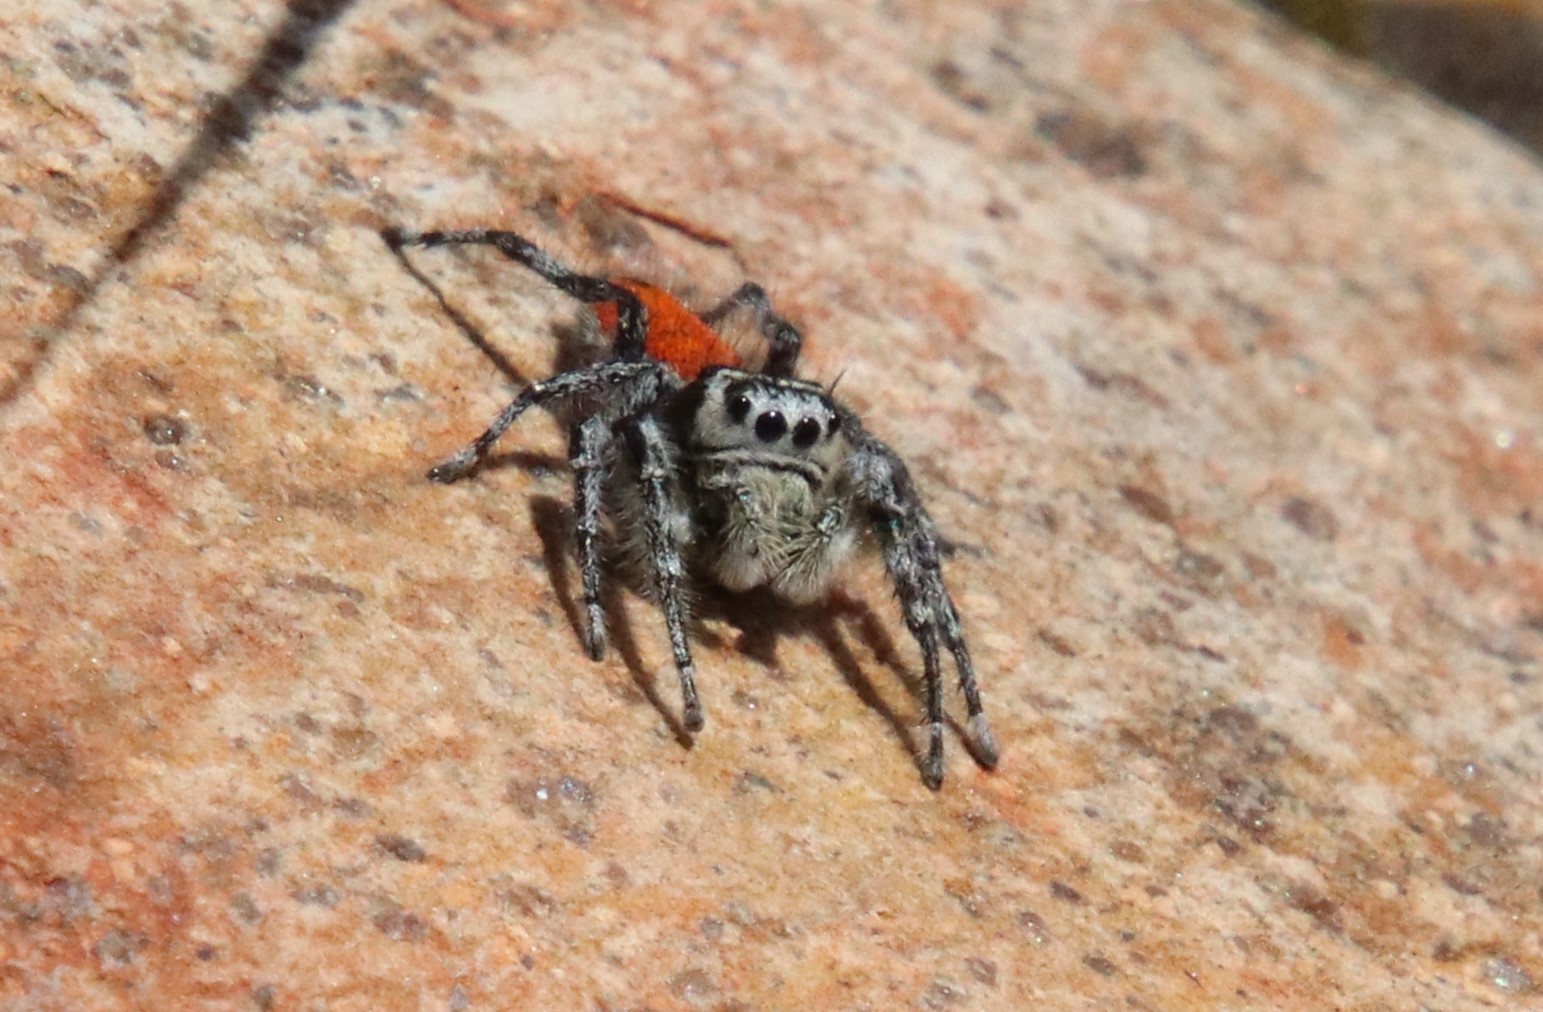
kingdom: Animalia
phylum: Arthropoda
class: Arachnida
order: Araneae
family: Salticidae
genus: Phidippus
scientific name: Phidippus phoenix
